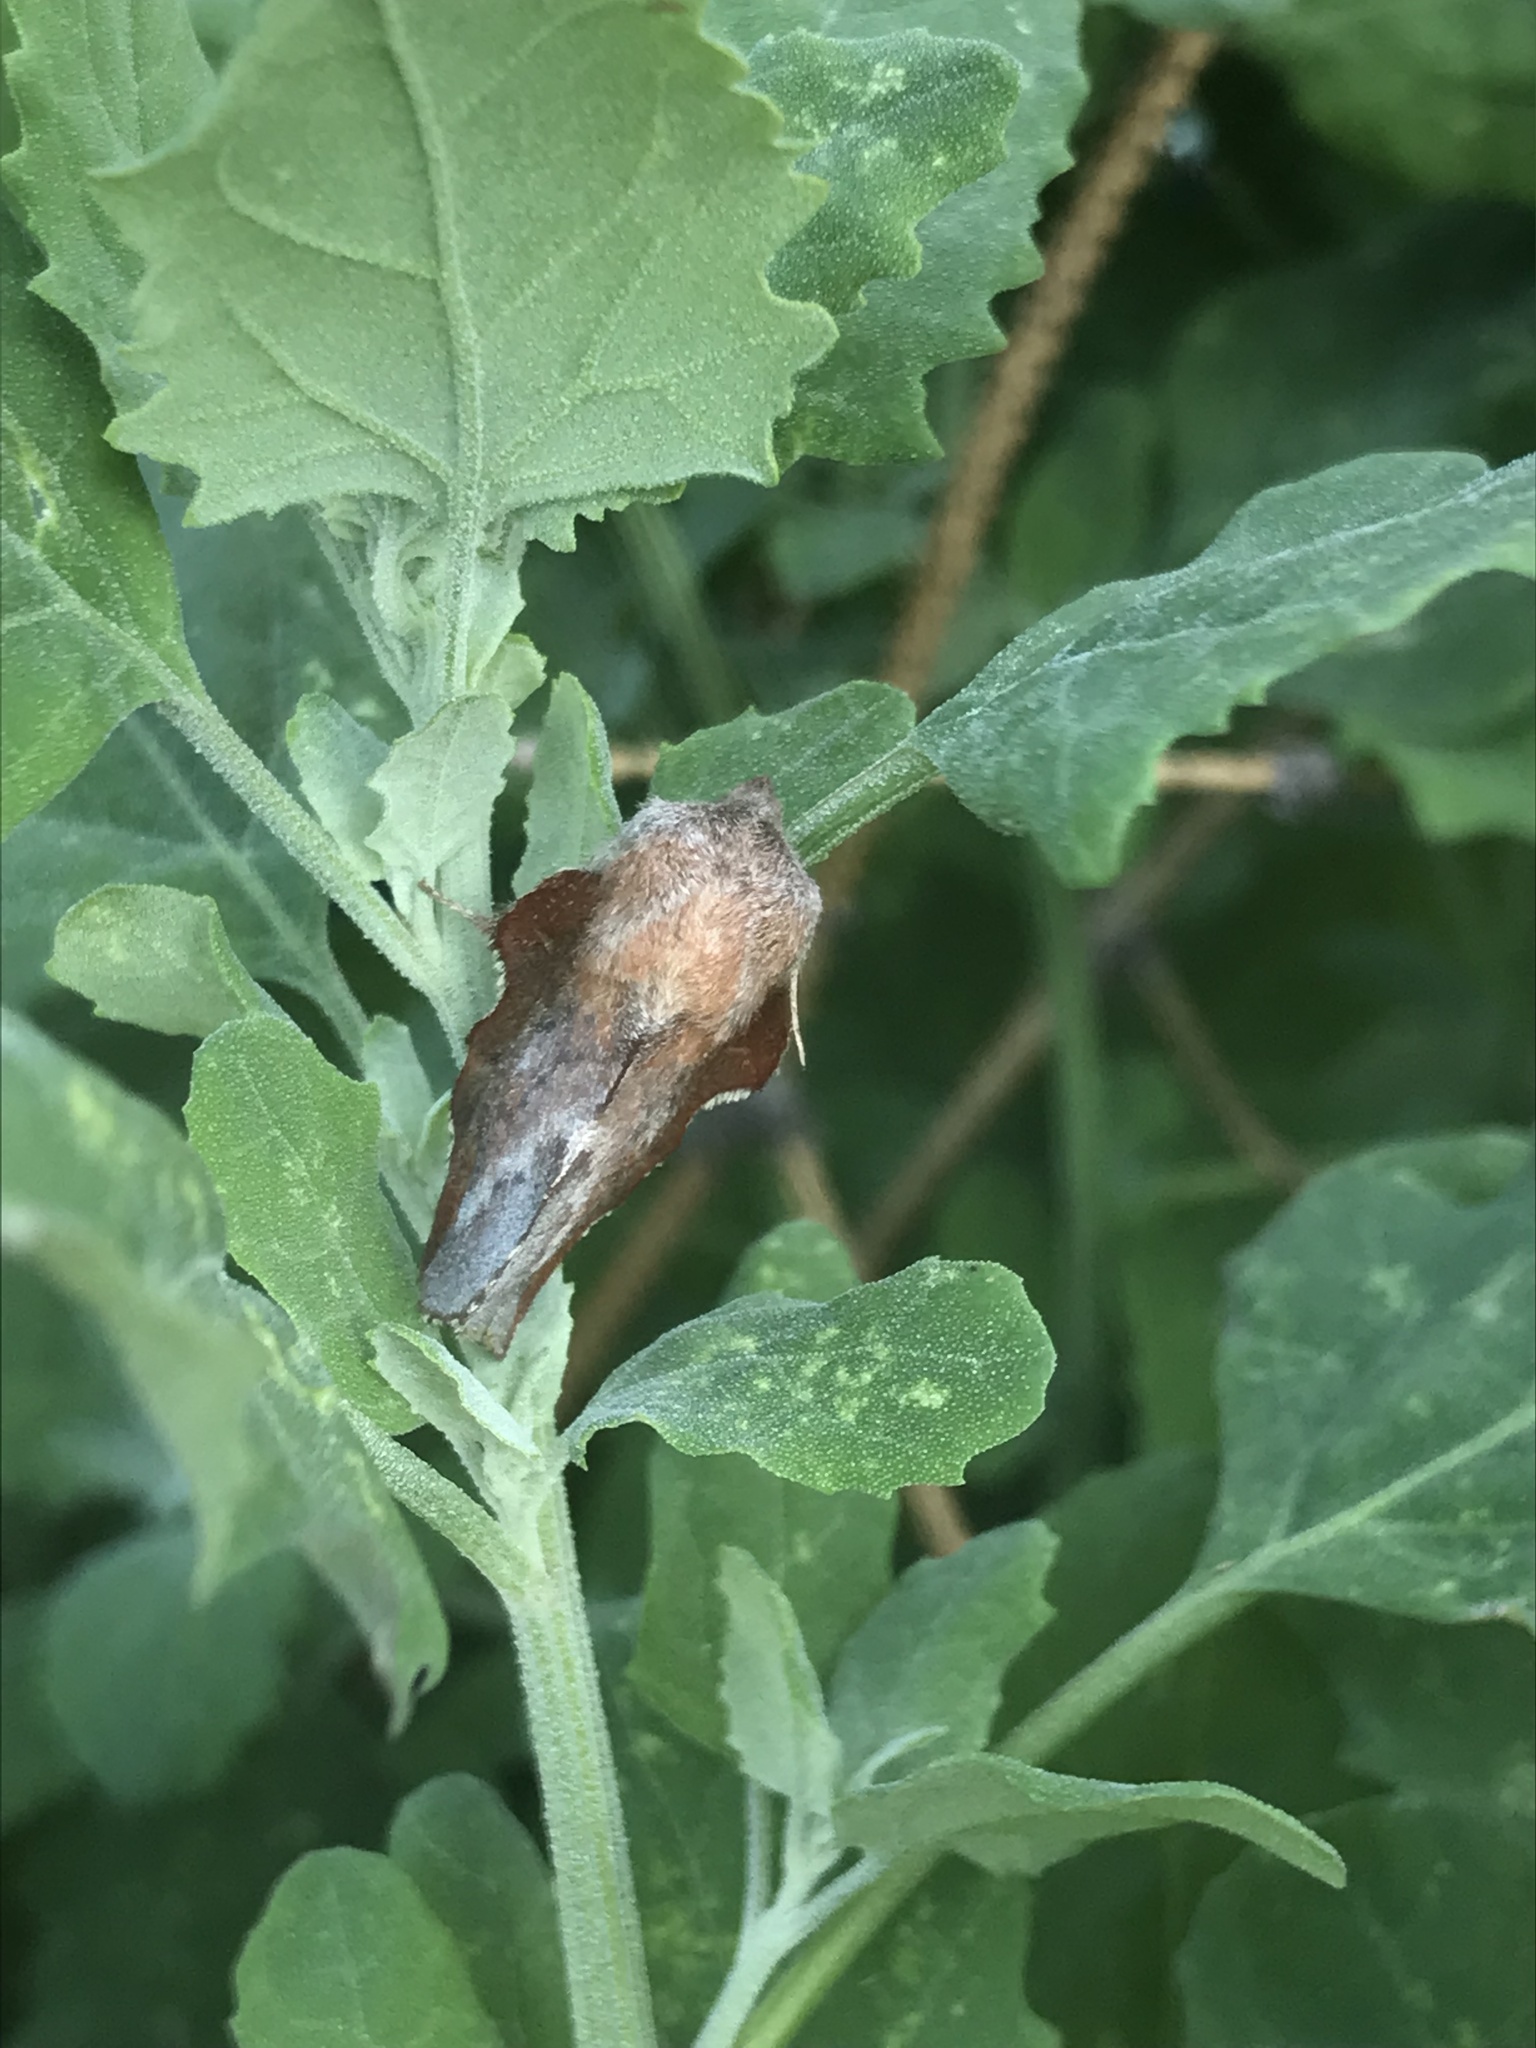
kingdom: Animalia
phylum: Arthropoda
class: Insecta
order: Lepidoptera
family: Lasiocampidae
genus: Phyllodesma
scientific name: Phyllodesma americana
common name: American lappet moth
